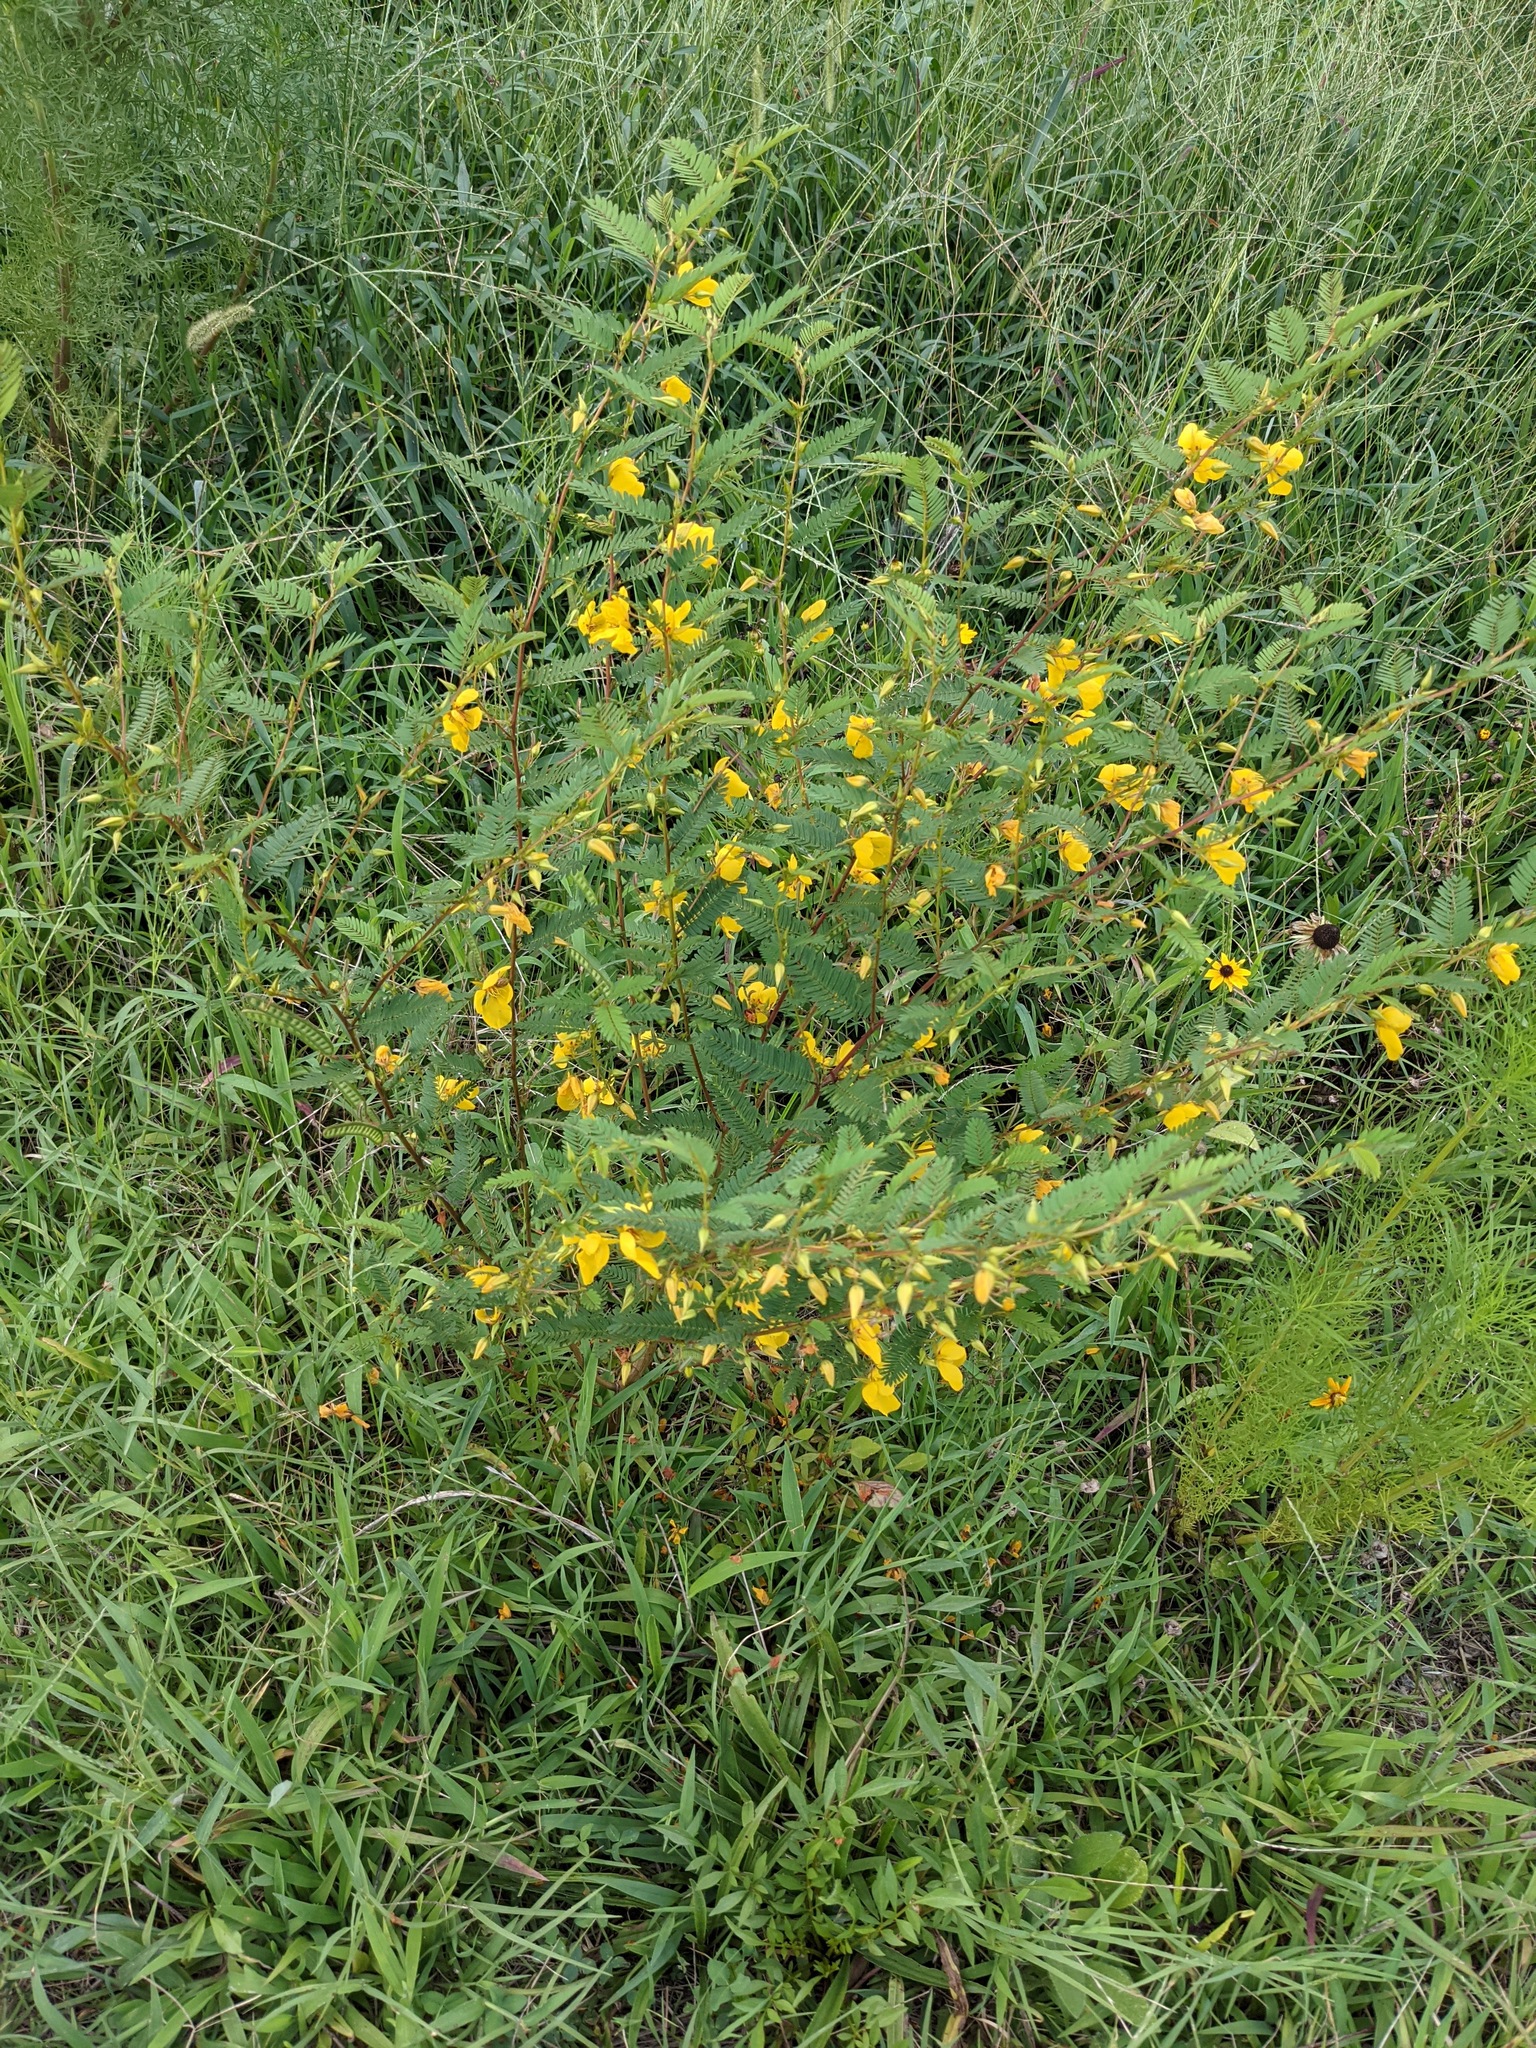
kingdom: Plantae
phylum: Tracheophyta
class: Magnoliopsida
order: Fabales
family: Fabaceae
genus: Chamaecrista
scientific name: Chamaecrista fasciculata
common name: Golden cassia
